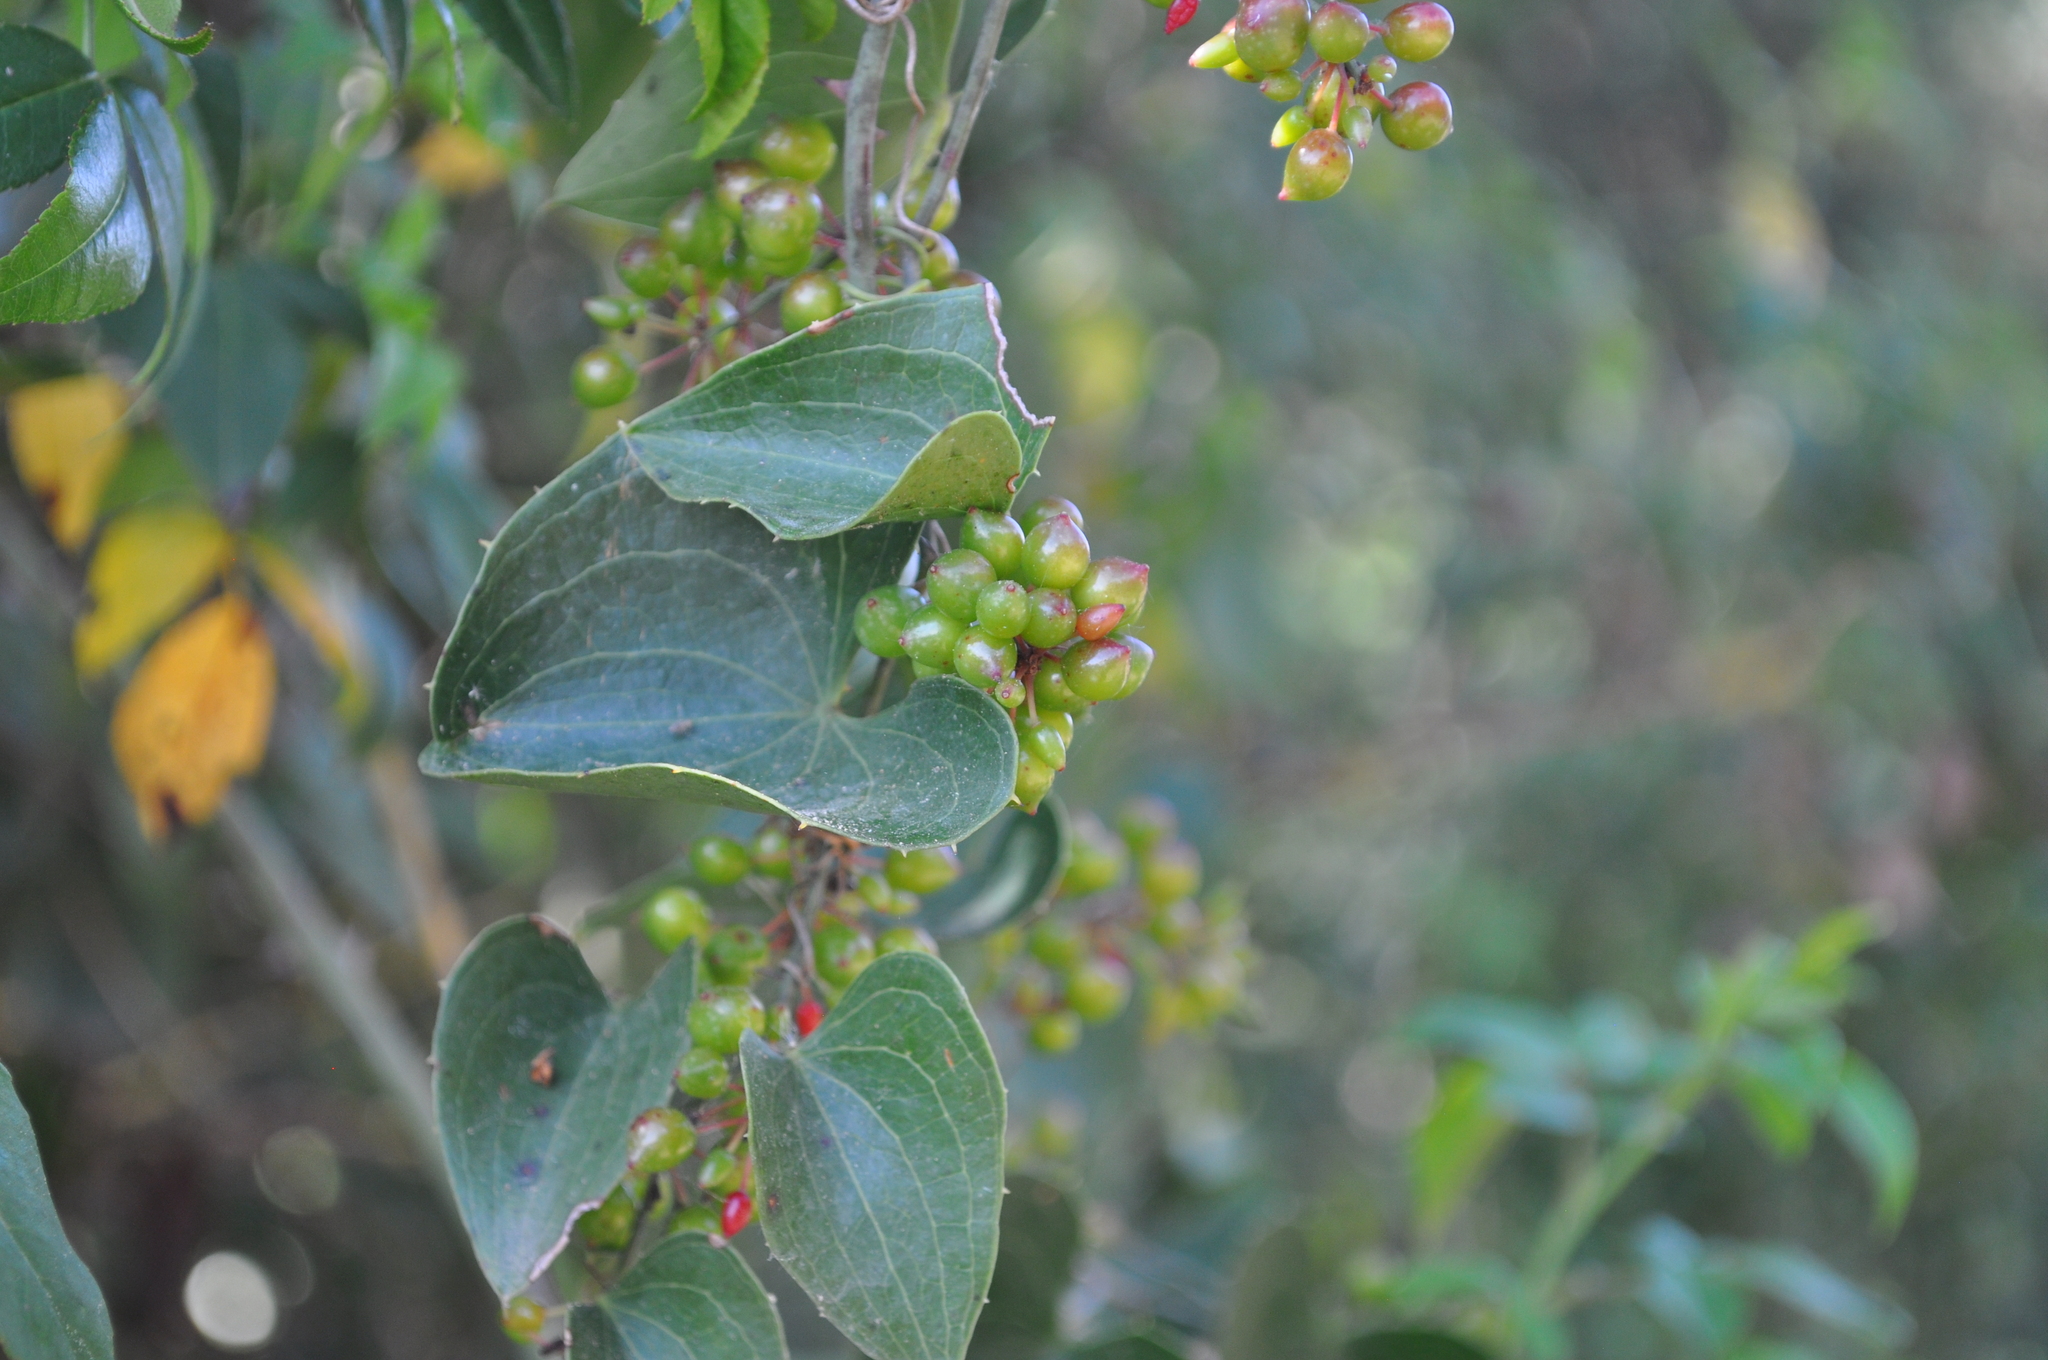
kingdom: Plantae
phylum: Tracheophyta
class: Liliopsida
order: Liliales
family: Smilacaceae
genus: Smilax
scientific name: Smilax aspera
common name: Common smilax
